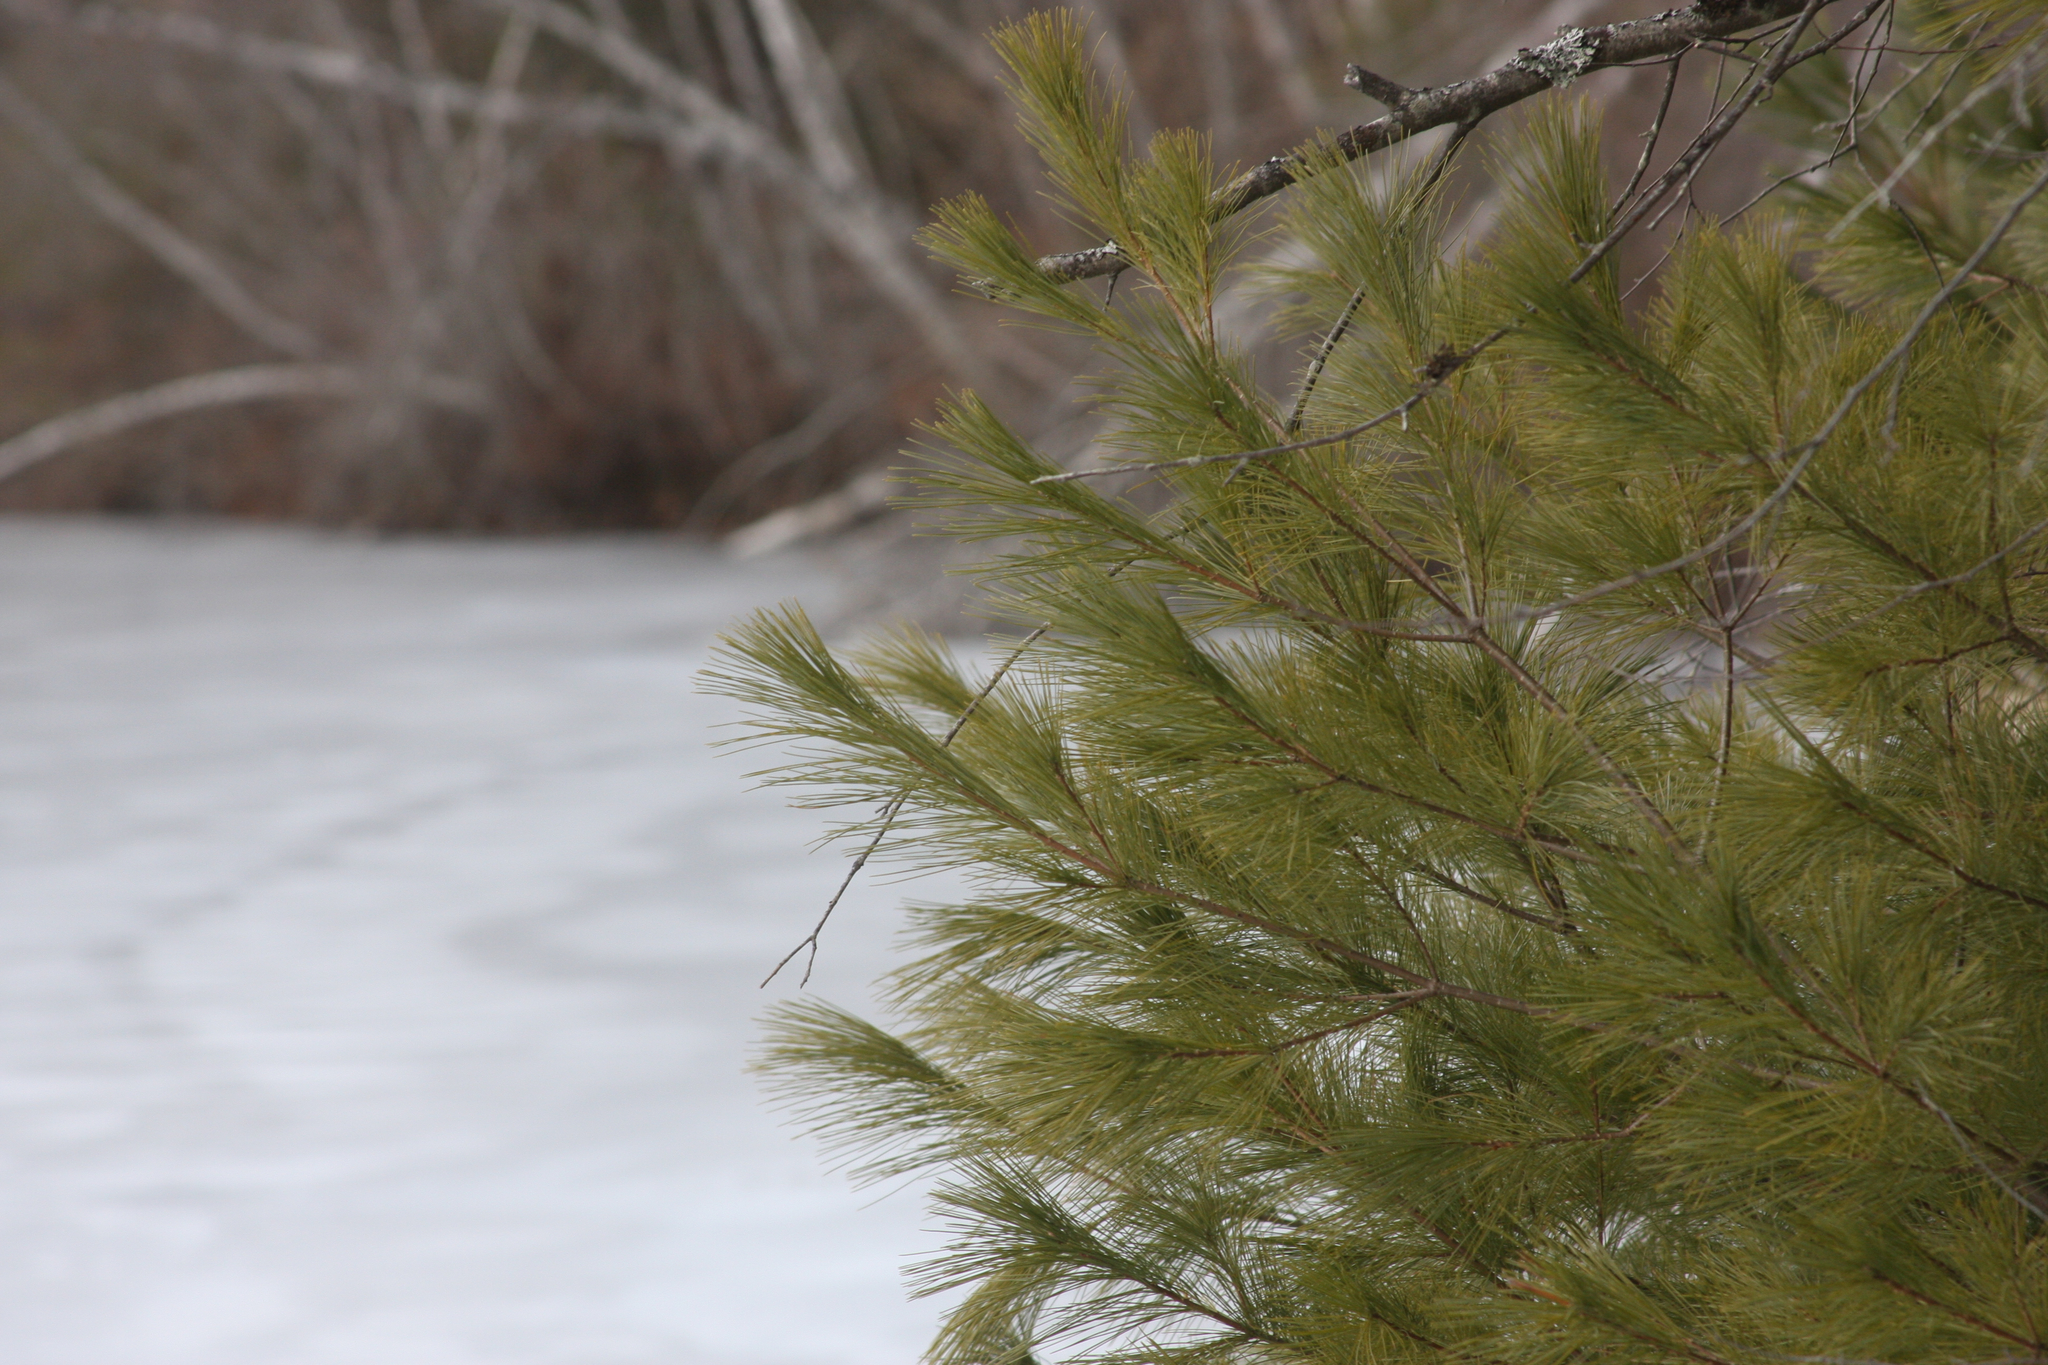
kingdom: Plantae
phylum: Tracheophyta
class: Pinopsida
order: Pinales
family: Pinaceae
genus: Pinus
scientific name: Pinus strobus
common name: Weymouth pine
